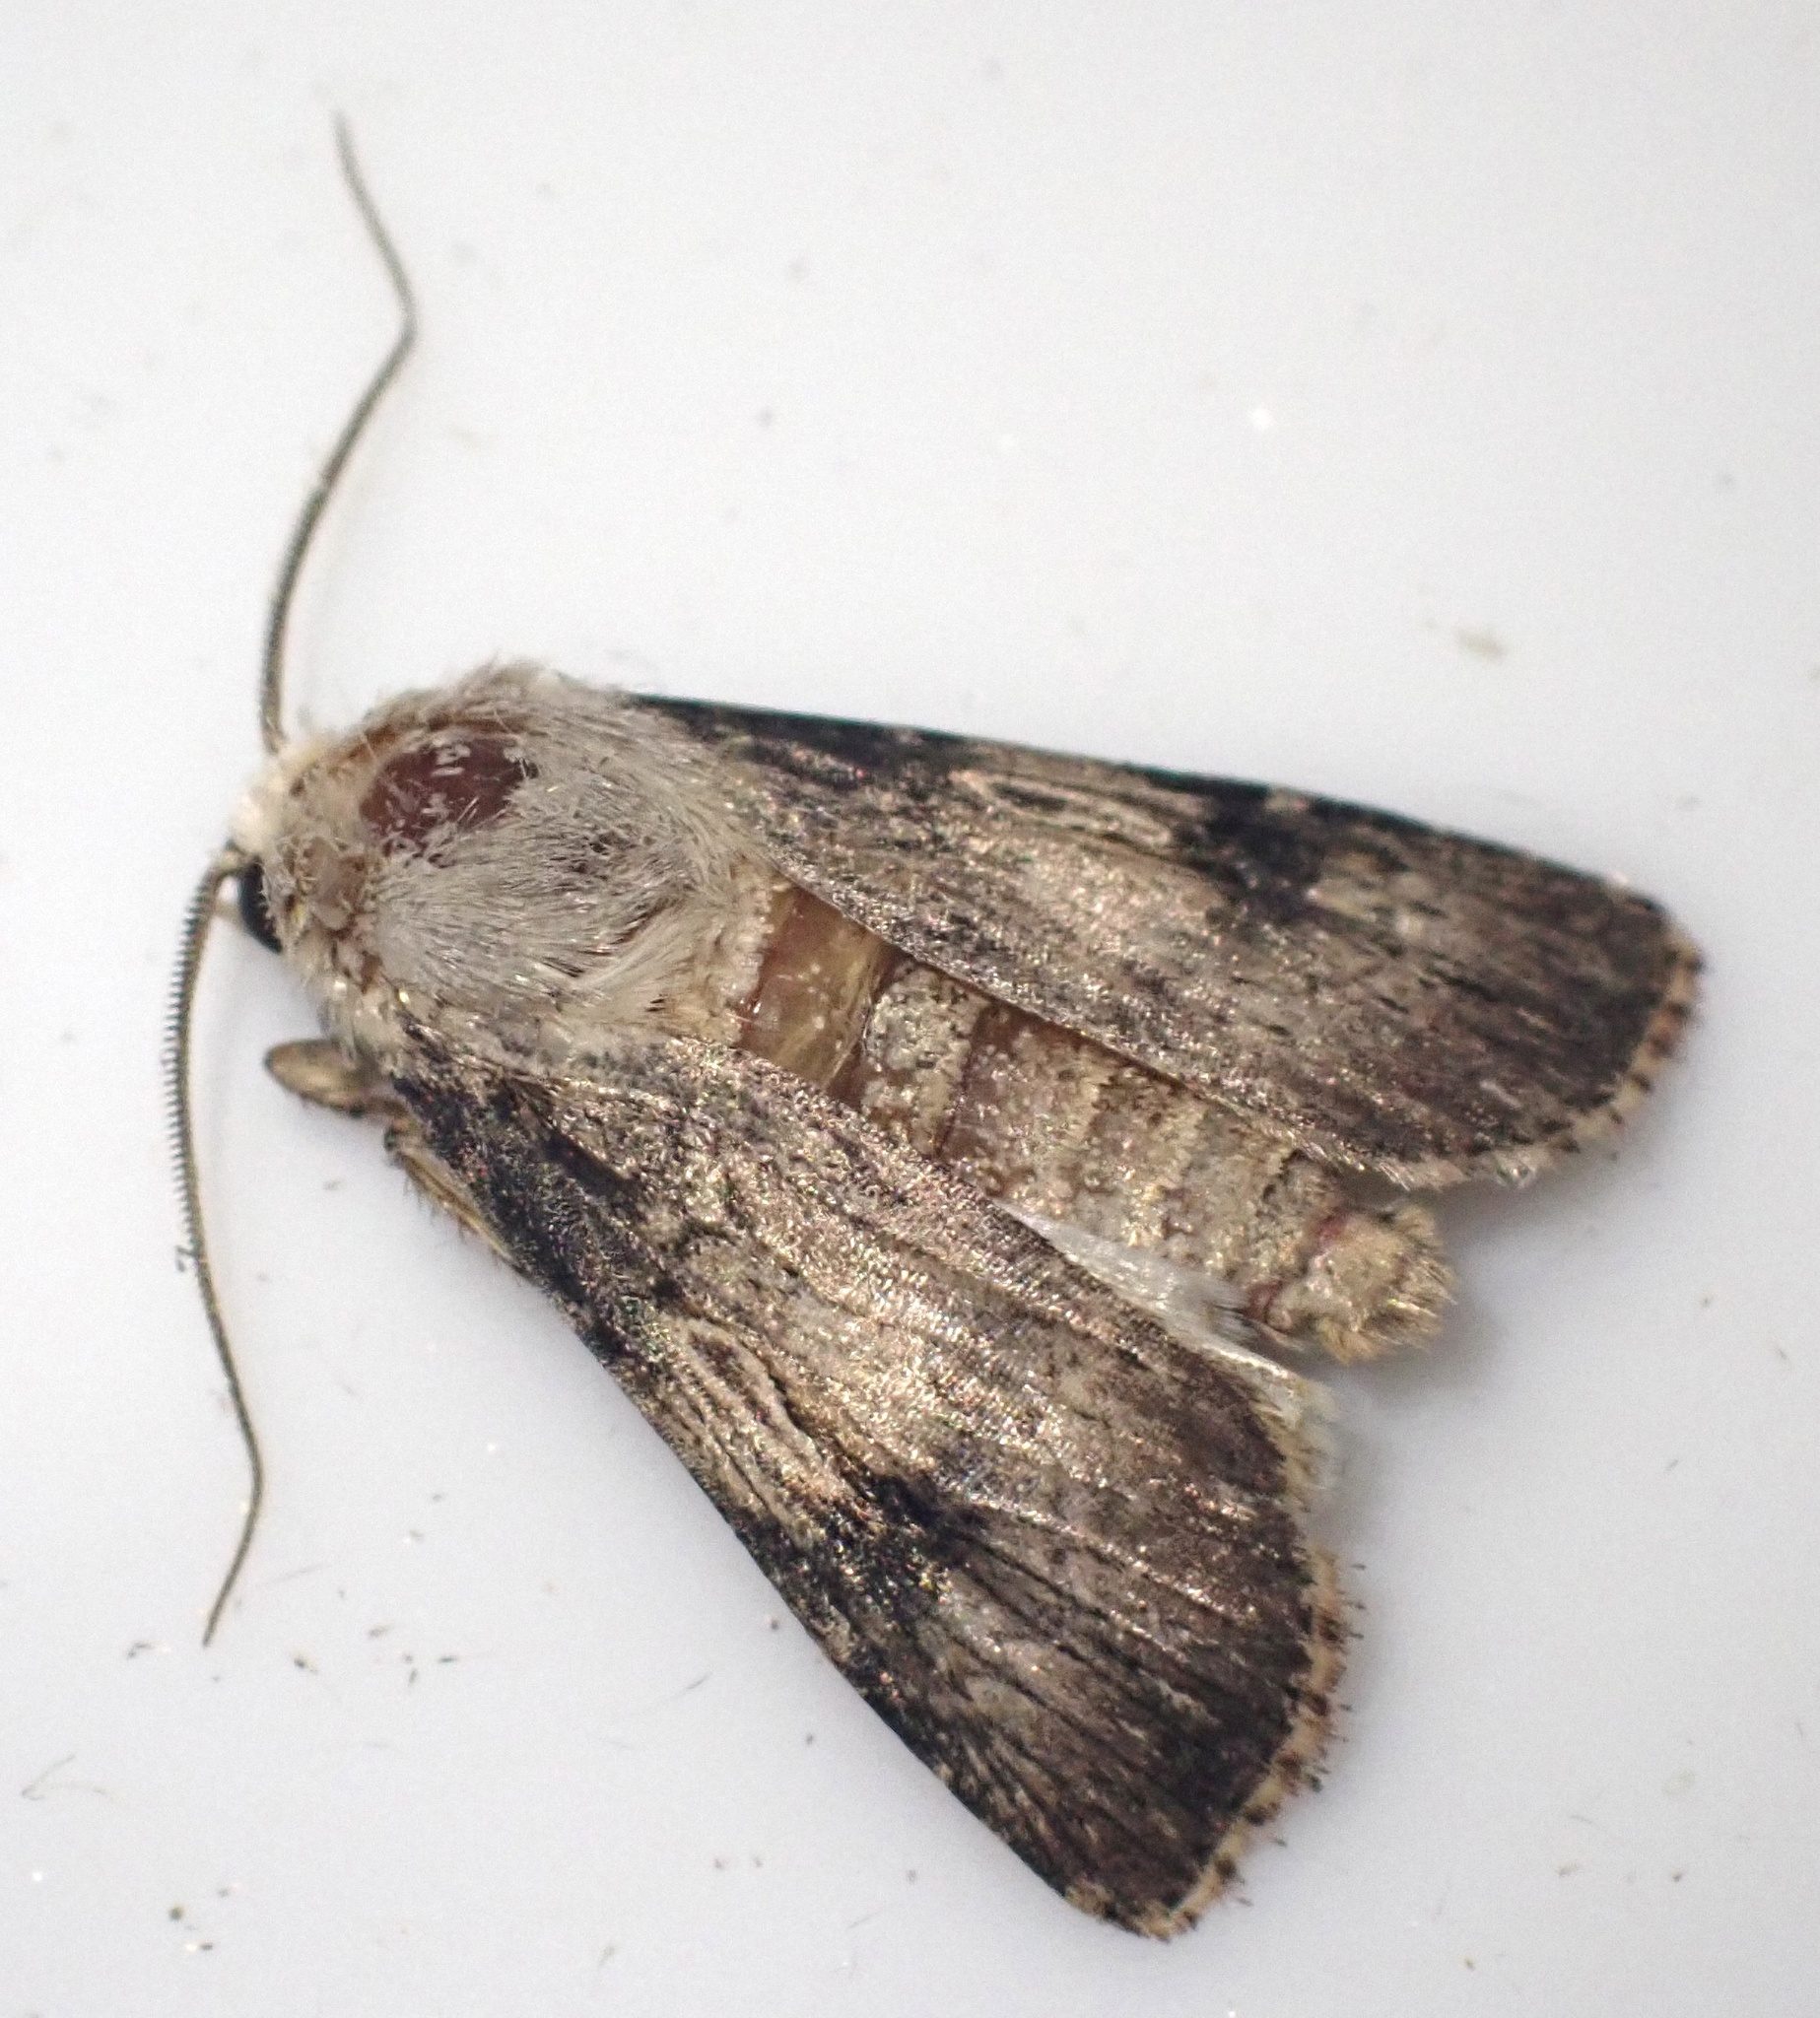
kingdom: Animalia
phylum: Arthropoda
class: Insecta
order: Lepidoptera
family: Noctuidae
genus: Agrotis
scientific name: Agrotis puta
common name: Shuttle-shaped dart
